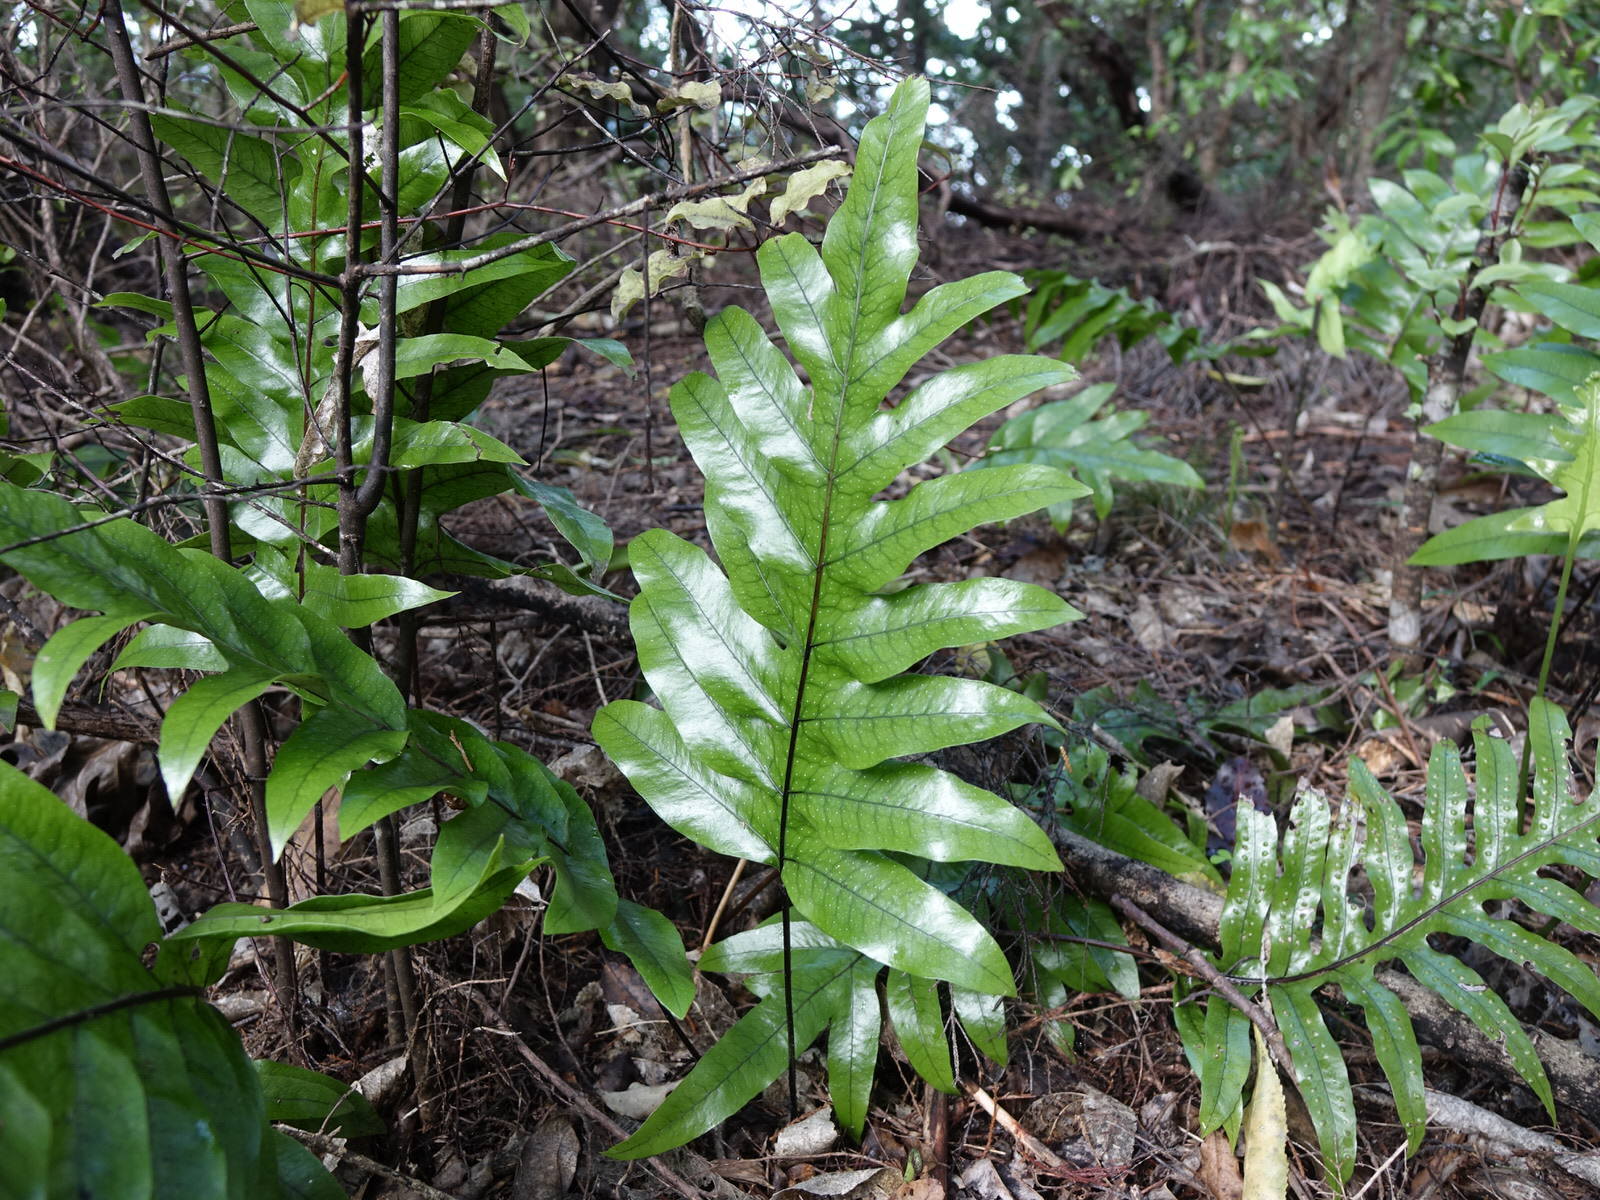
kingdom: Plantae
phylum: Tracheophyta
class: Polypodiopsida
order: Polypodiales
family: Polypodiaceae
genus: Lecanopteris
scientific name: Lecanopteris pustulata
